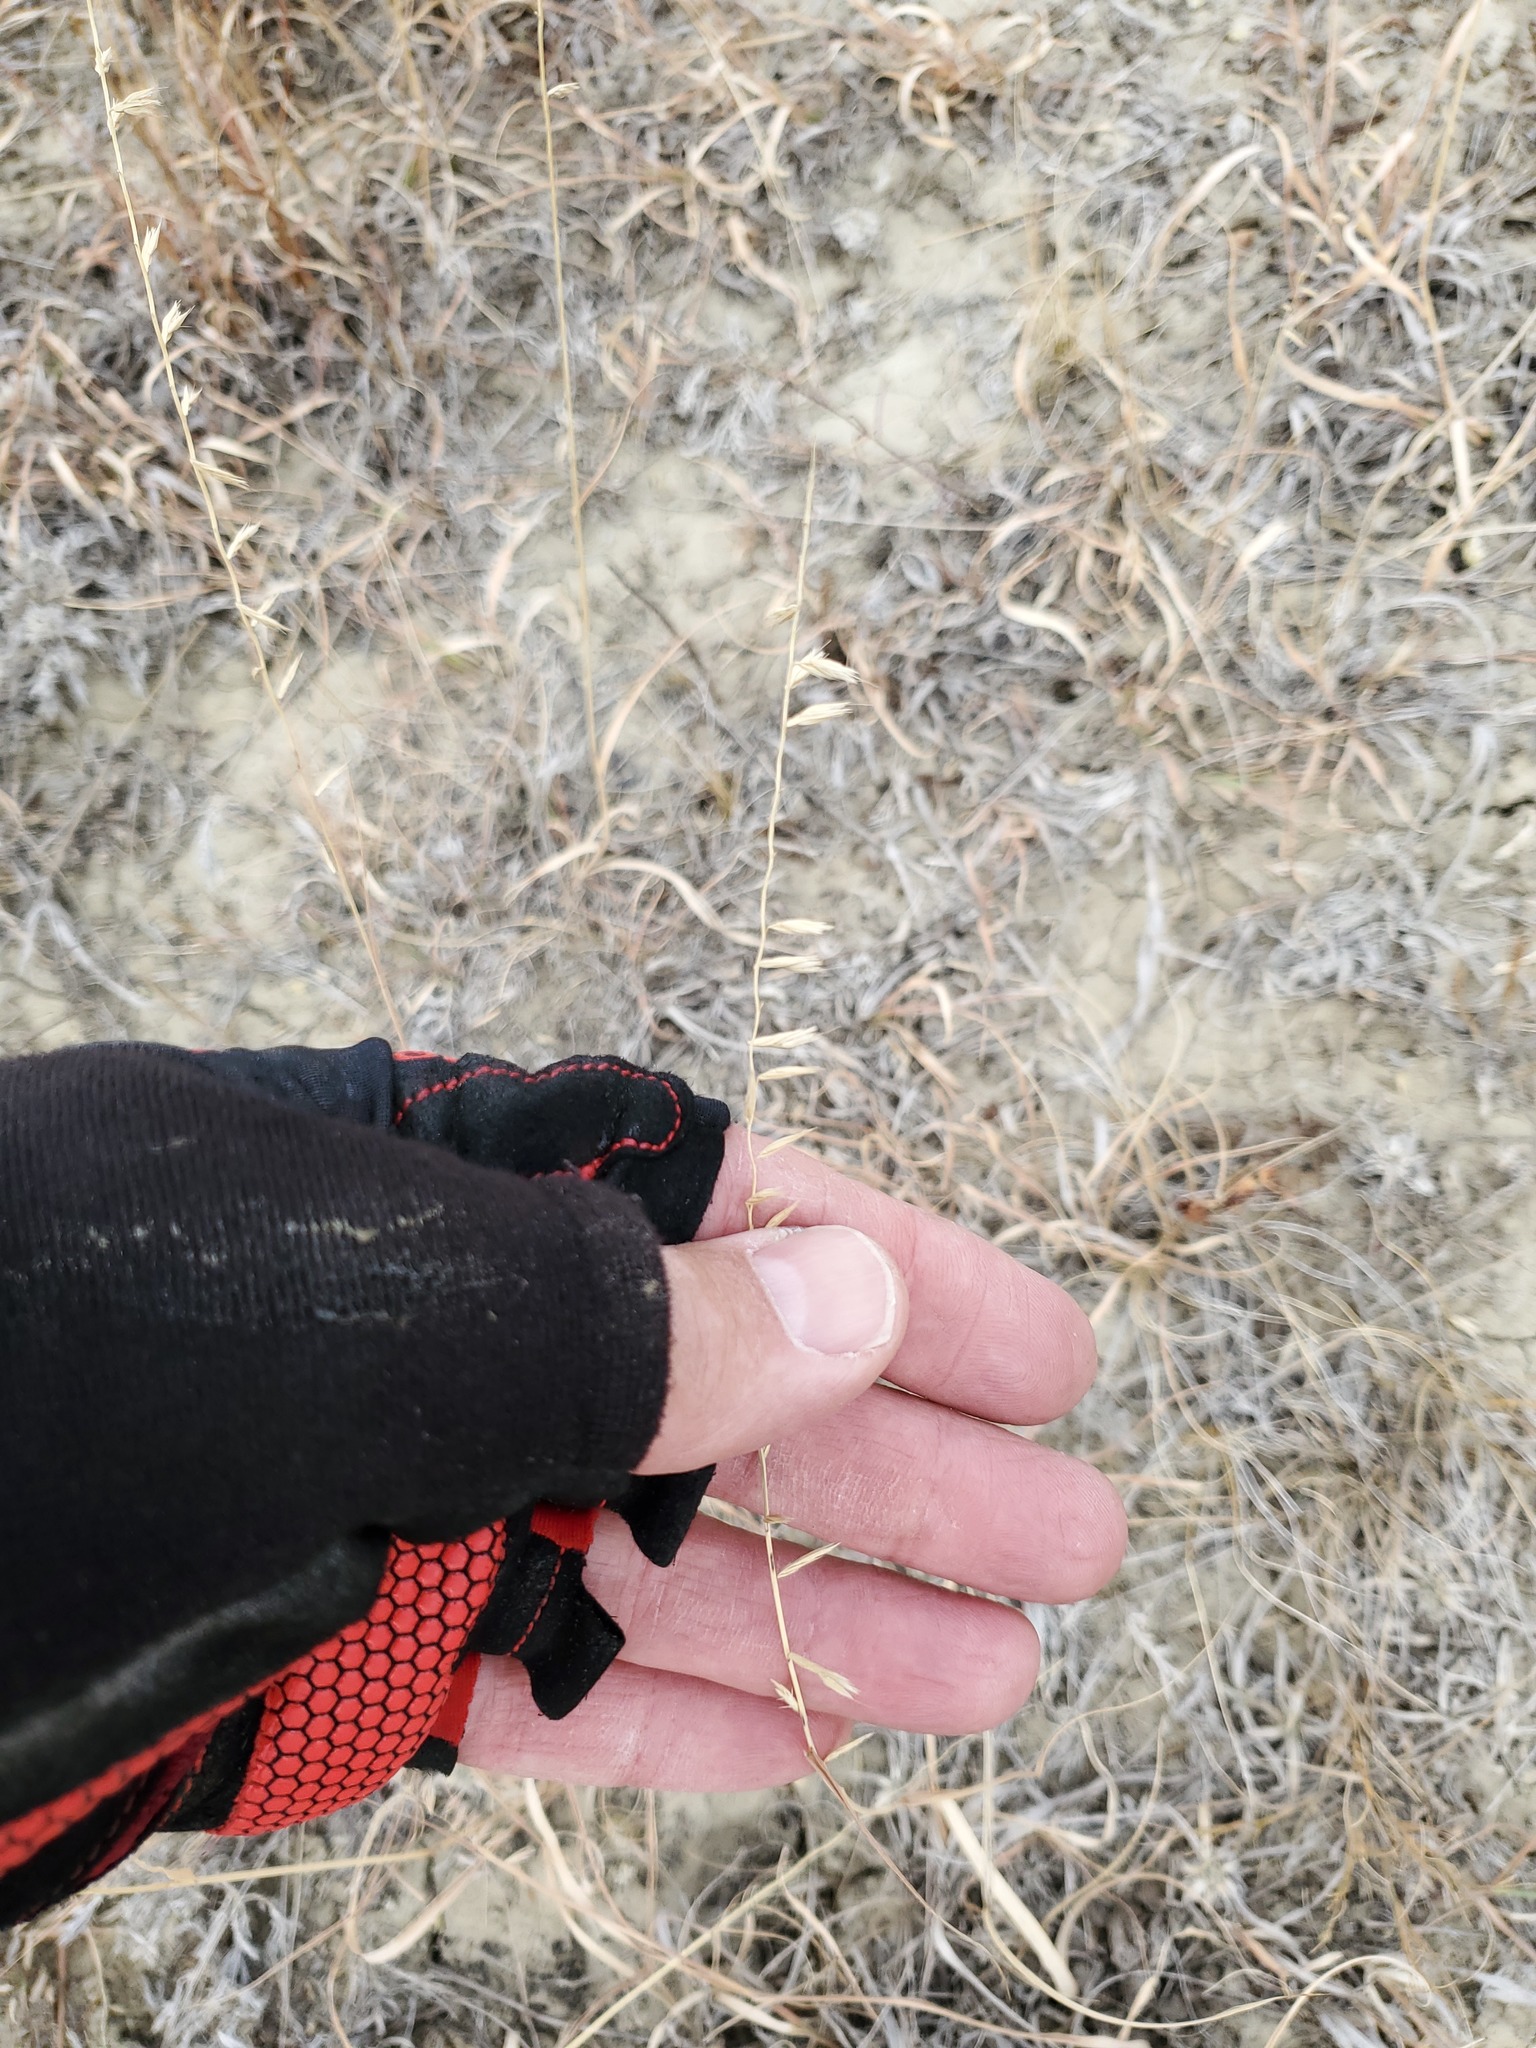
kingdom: Plantae
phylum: Tracheophyta
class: Liliopsida
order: Poales
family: Poaceae
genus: Bouteloua
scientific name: Bouteloua curtipendula
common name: Side-oats grama
